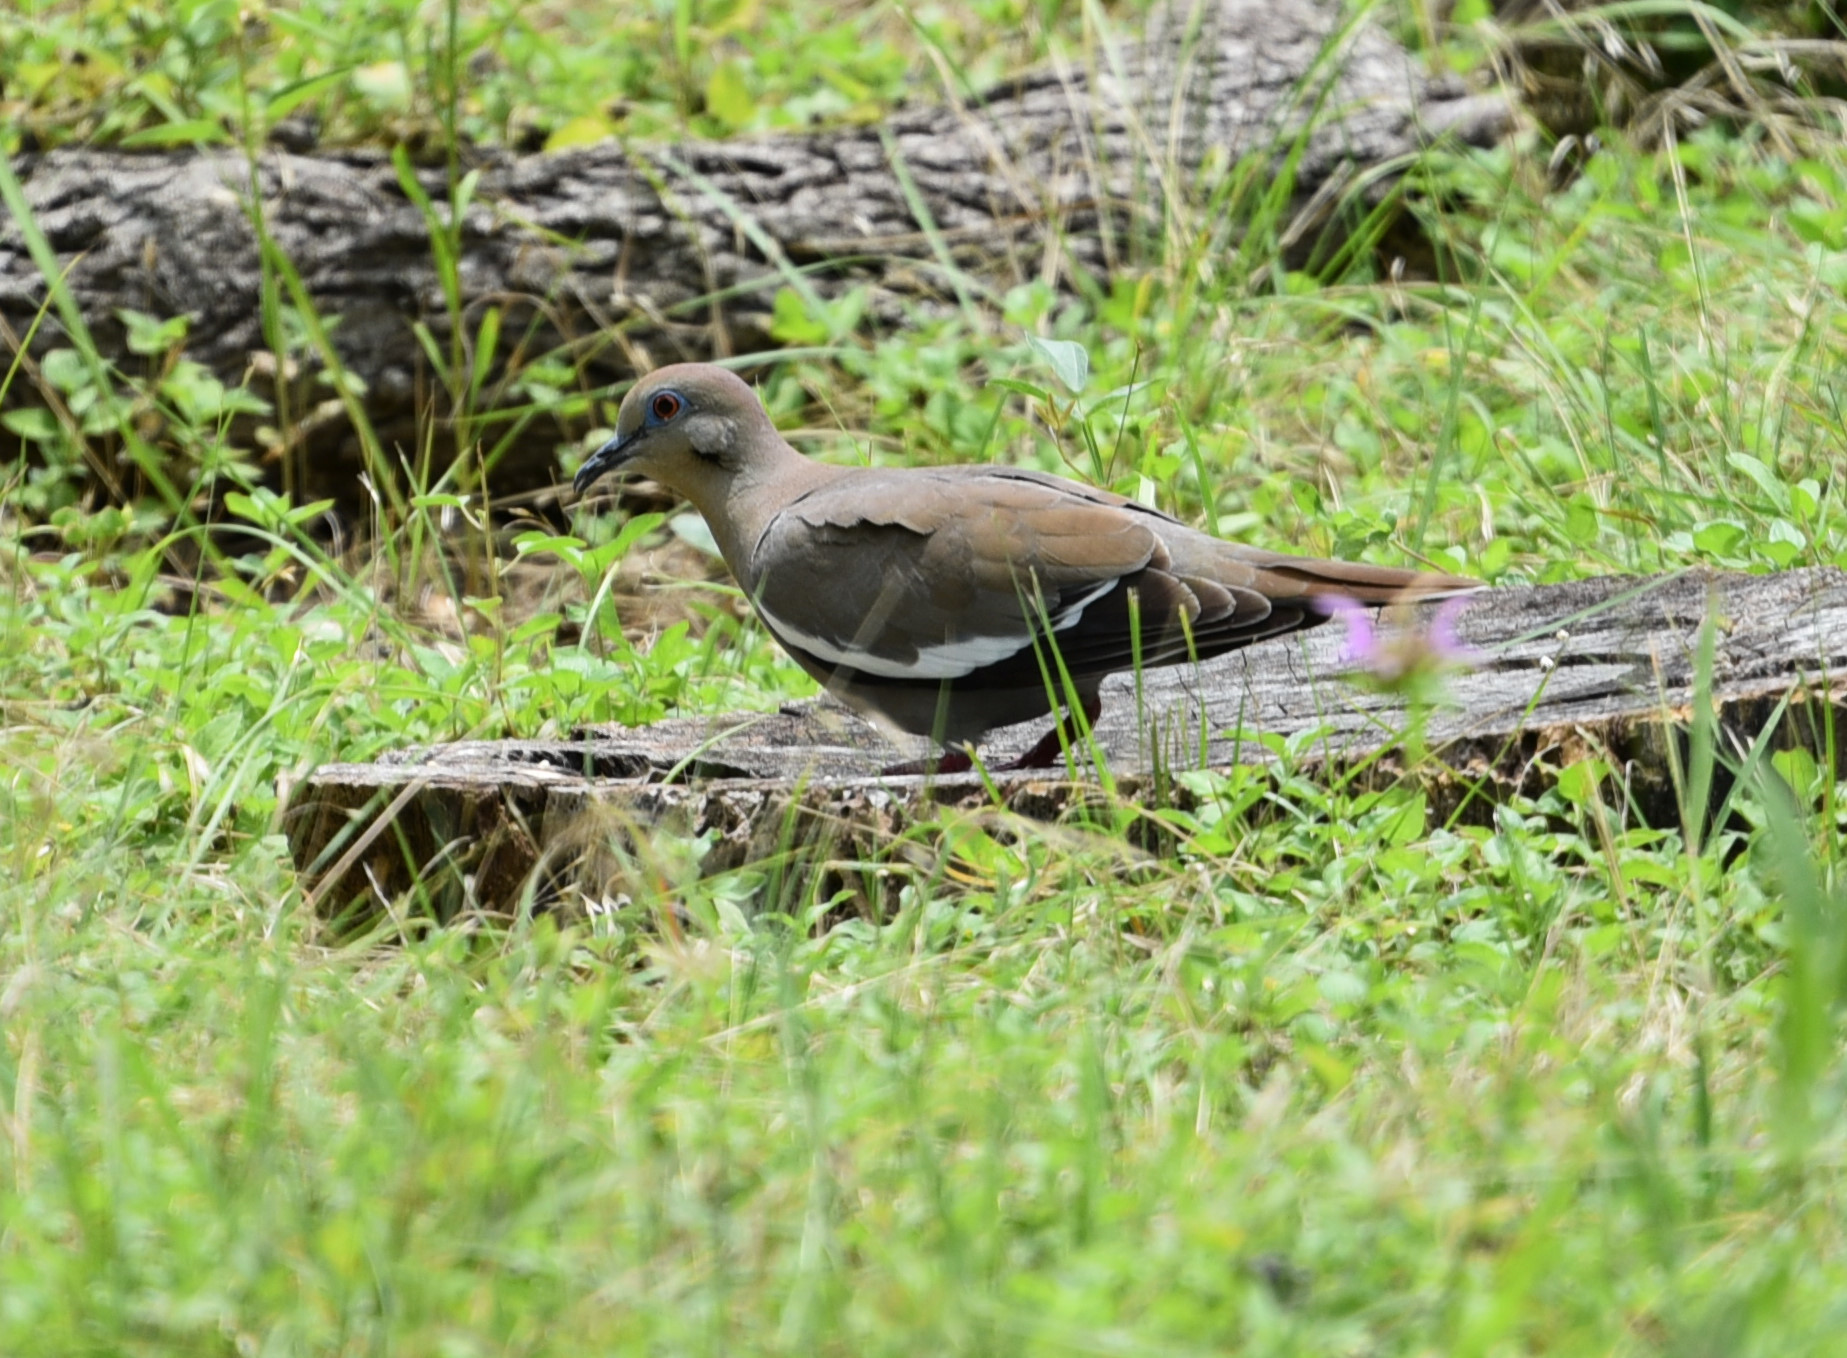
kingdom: Animalia
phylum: Chordata
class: Aves
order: Columbiformes
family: Columbidae
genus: Zenaida
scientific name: Zenaida asiatica
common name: White-winged dove
